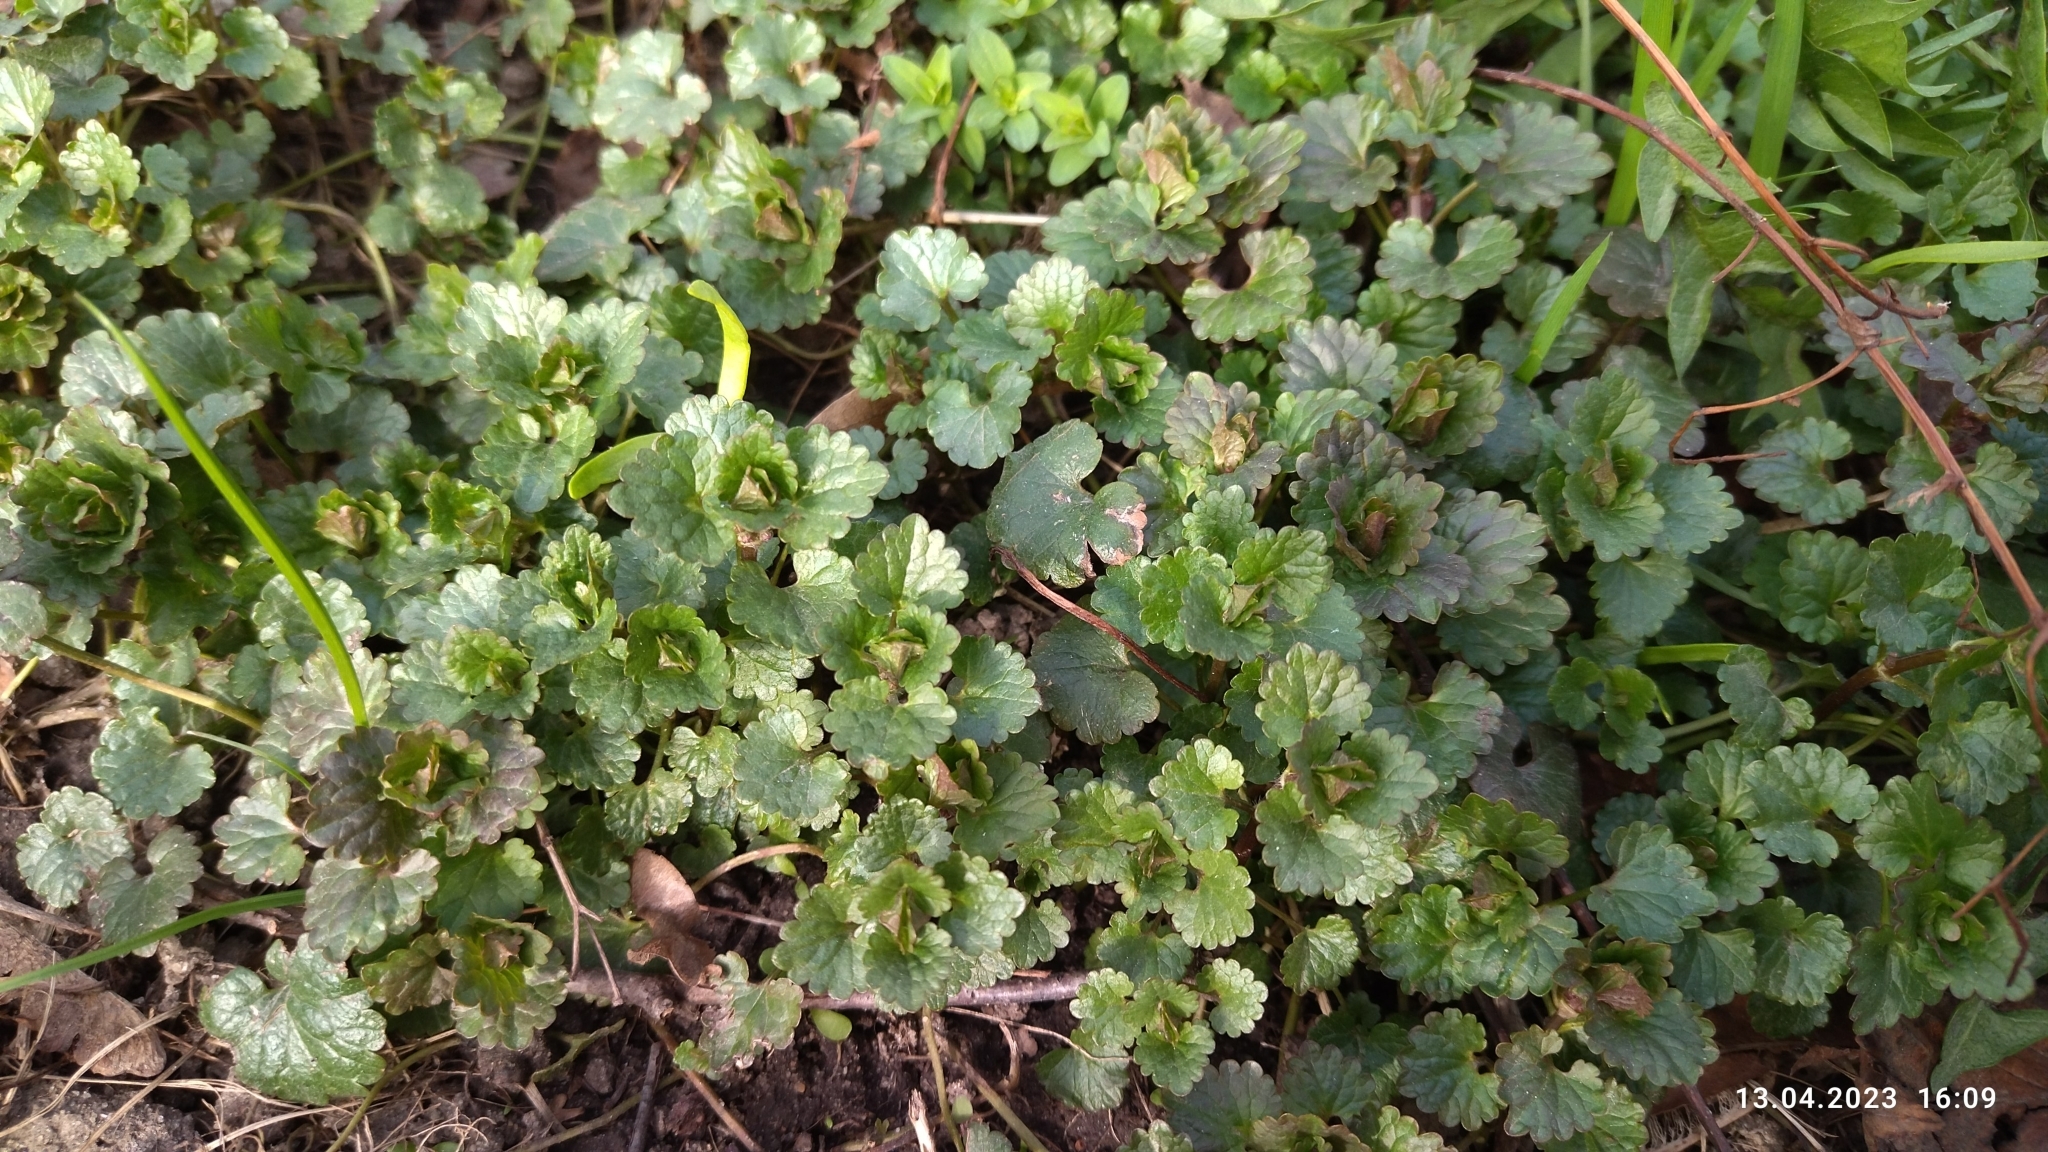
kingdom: Plantae
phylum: Tracheophyta
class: Magnoliopsida
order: Lamiales
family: Lamiaceae
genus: Glechoma
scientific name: Glechoma hederacea
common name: Ground ivy
